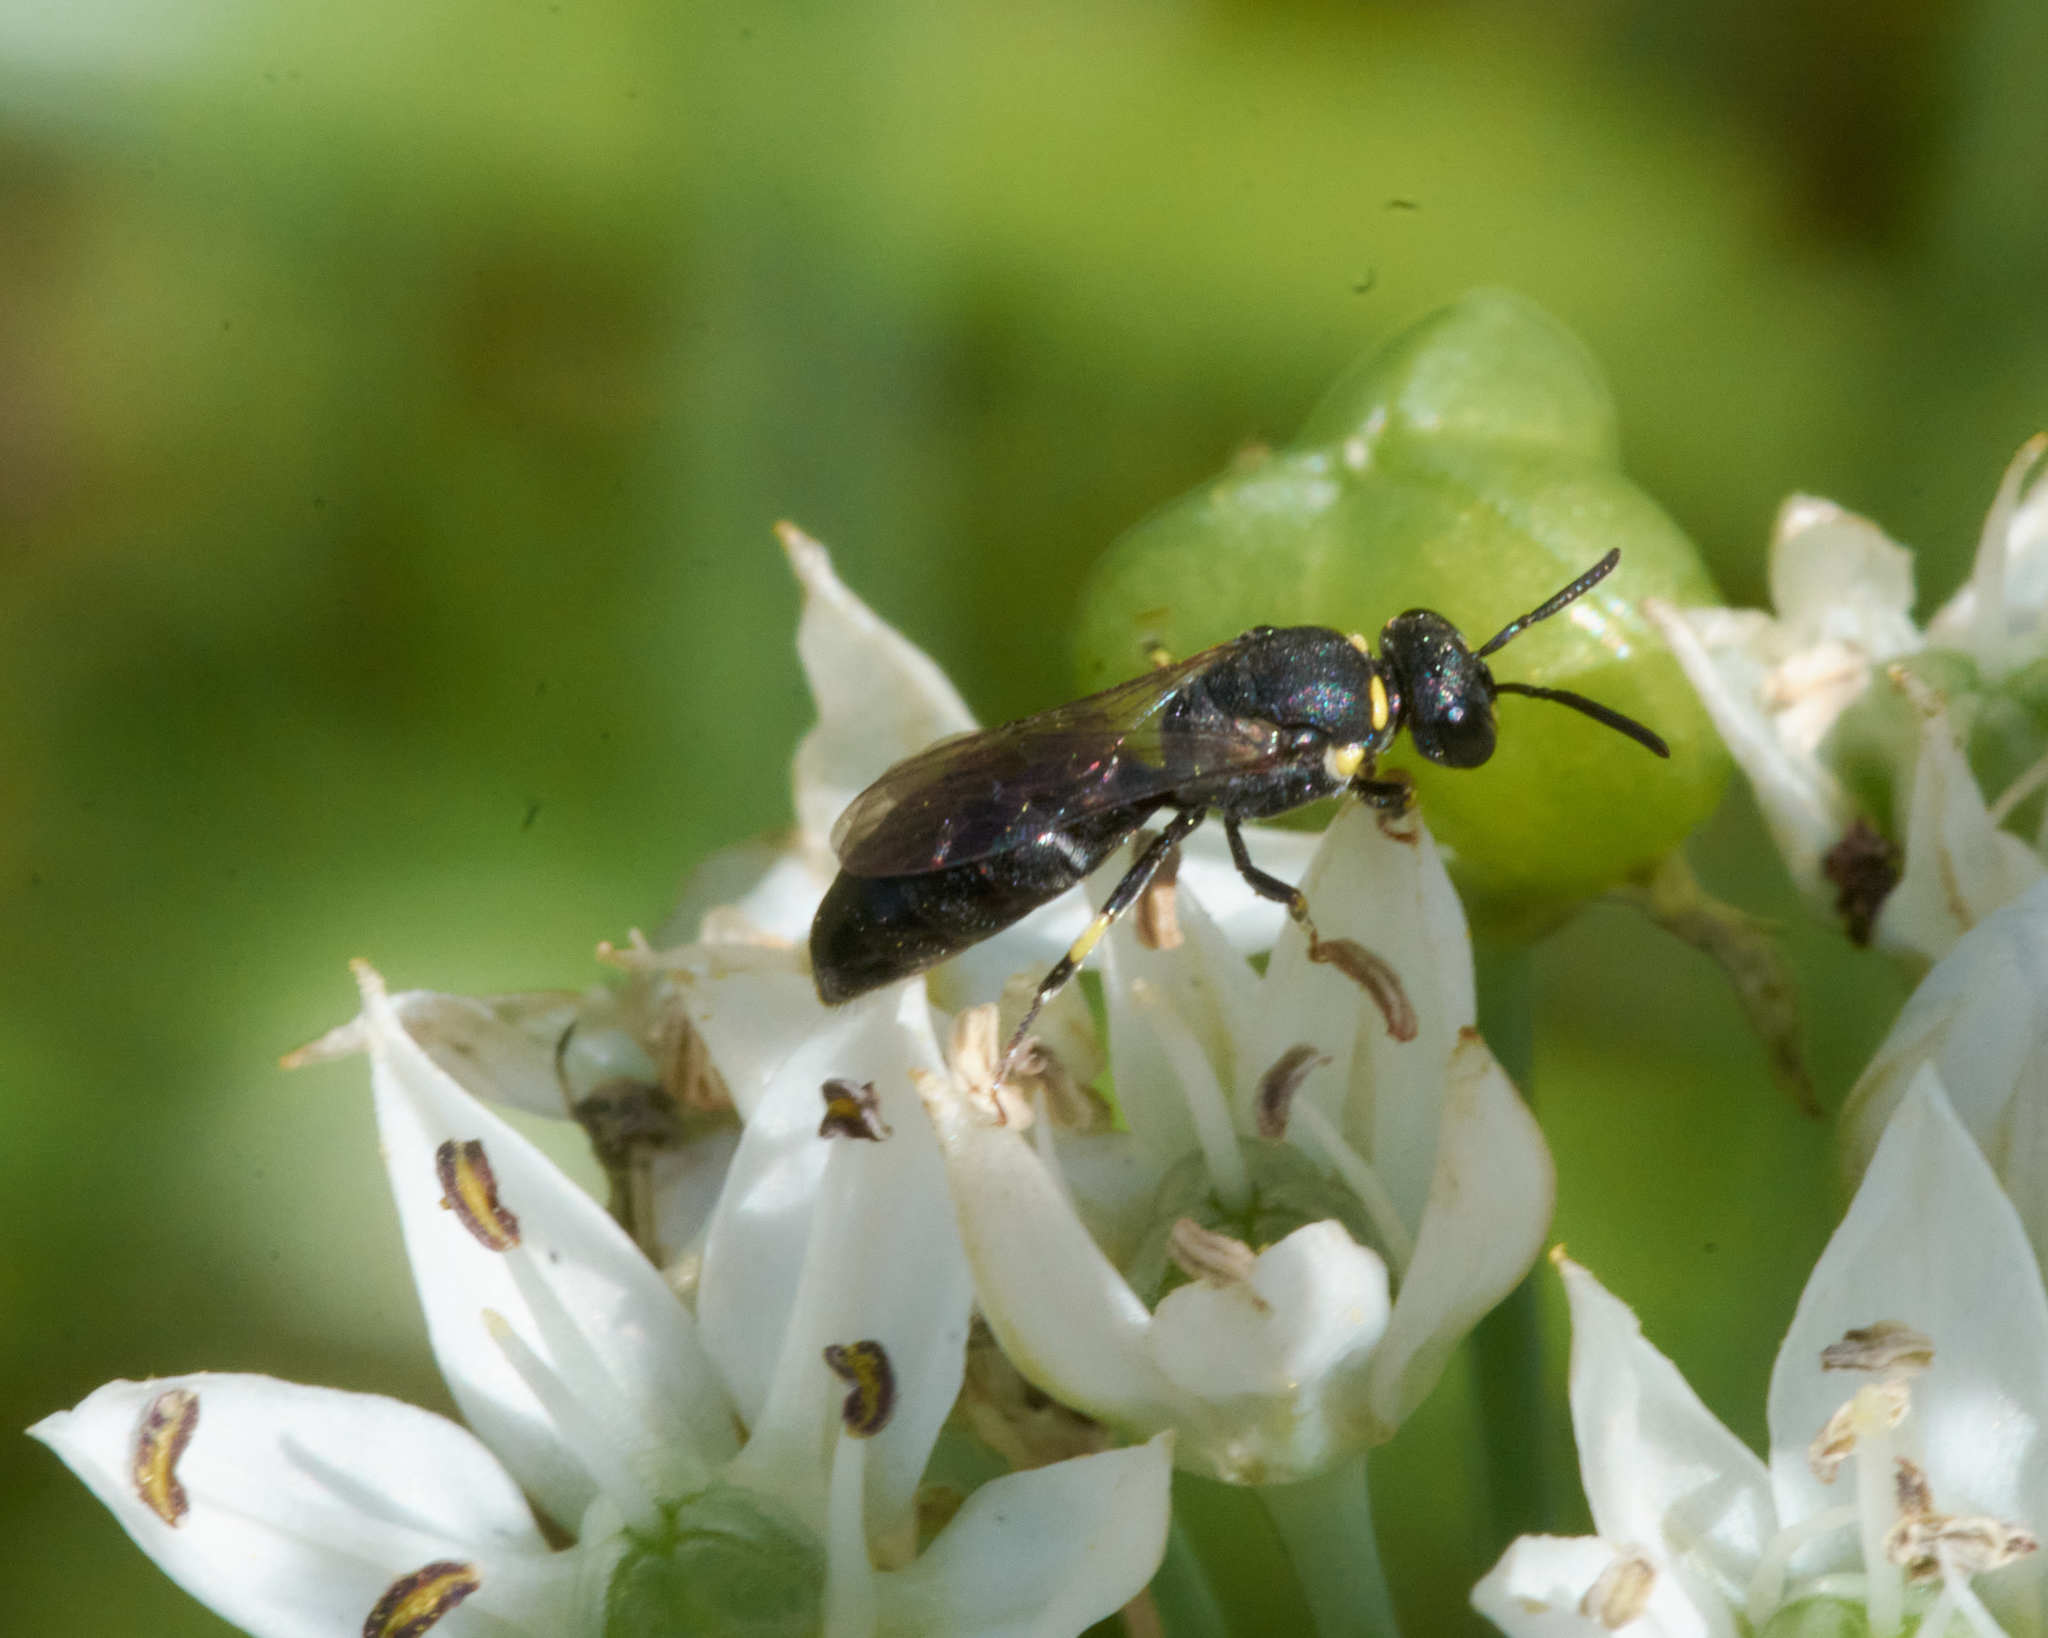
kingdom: Animalia
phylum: Arthropoda
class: Insecta
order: Hymenoptera
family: Colletidae
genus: Hylaeus
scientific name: Hylaeus modestus
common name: Yellow-faced bee
